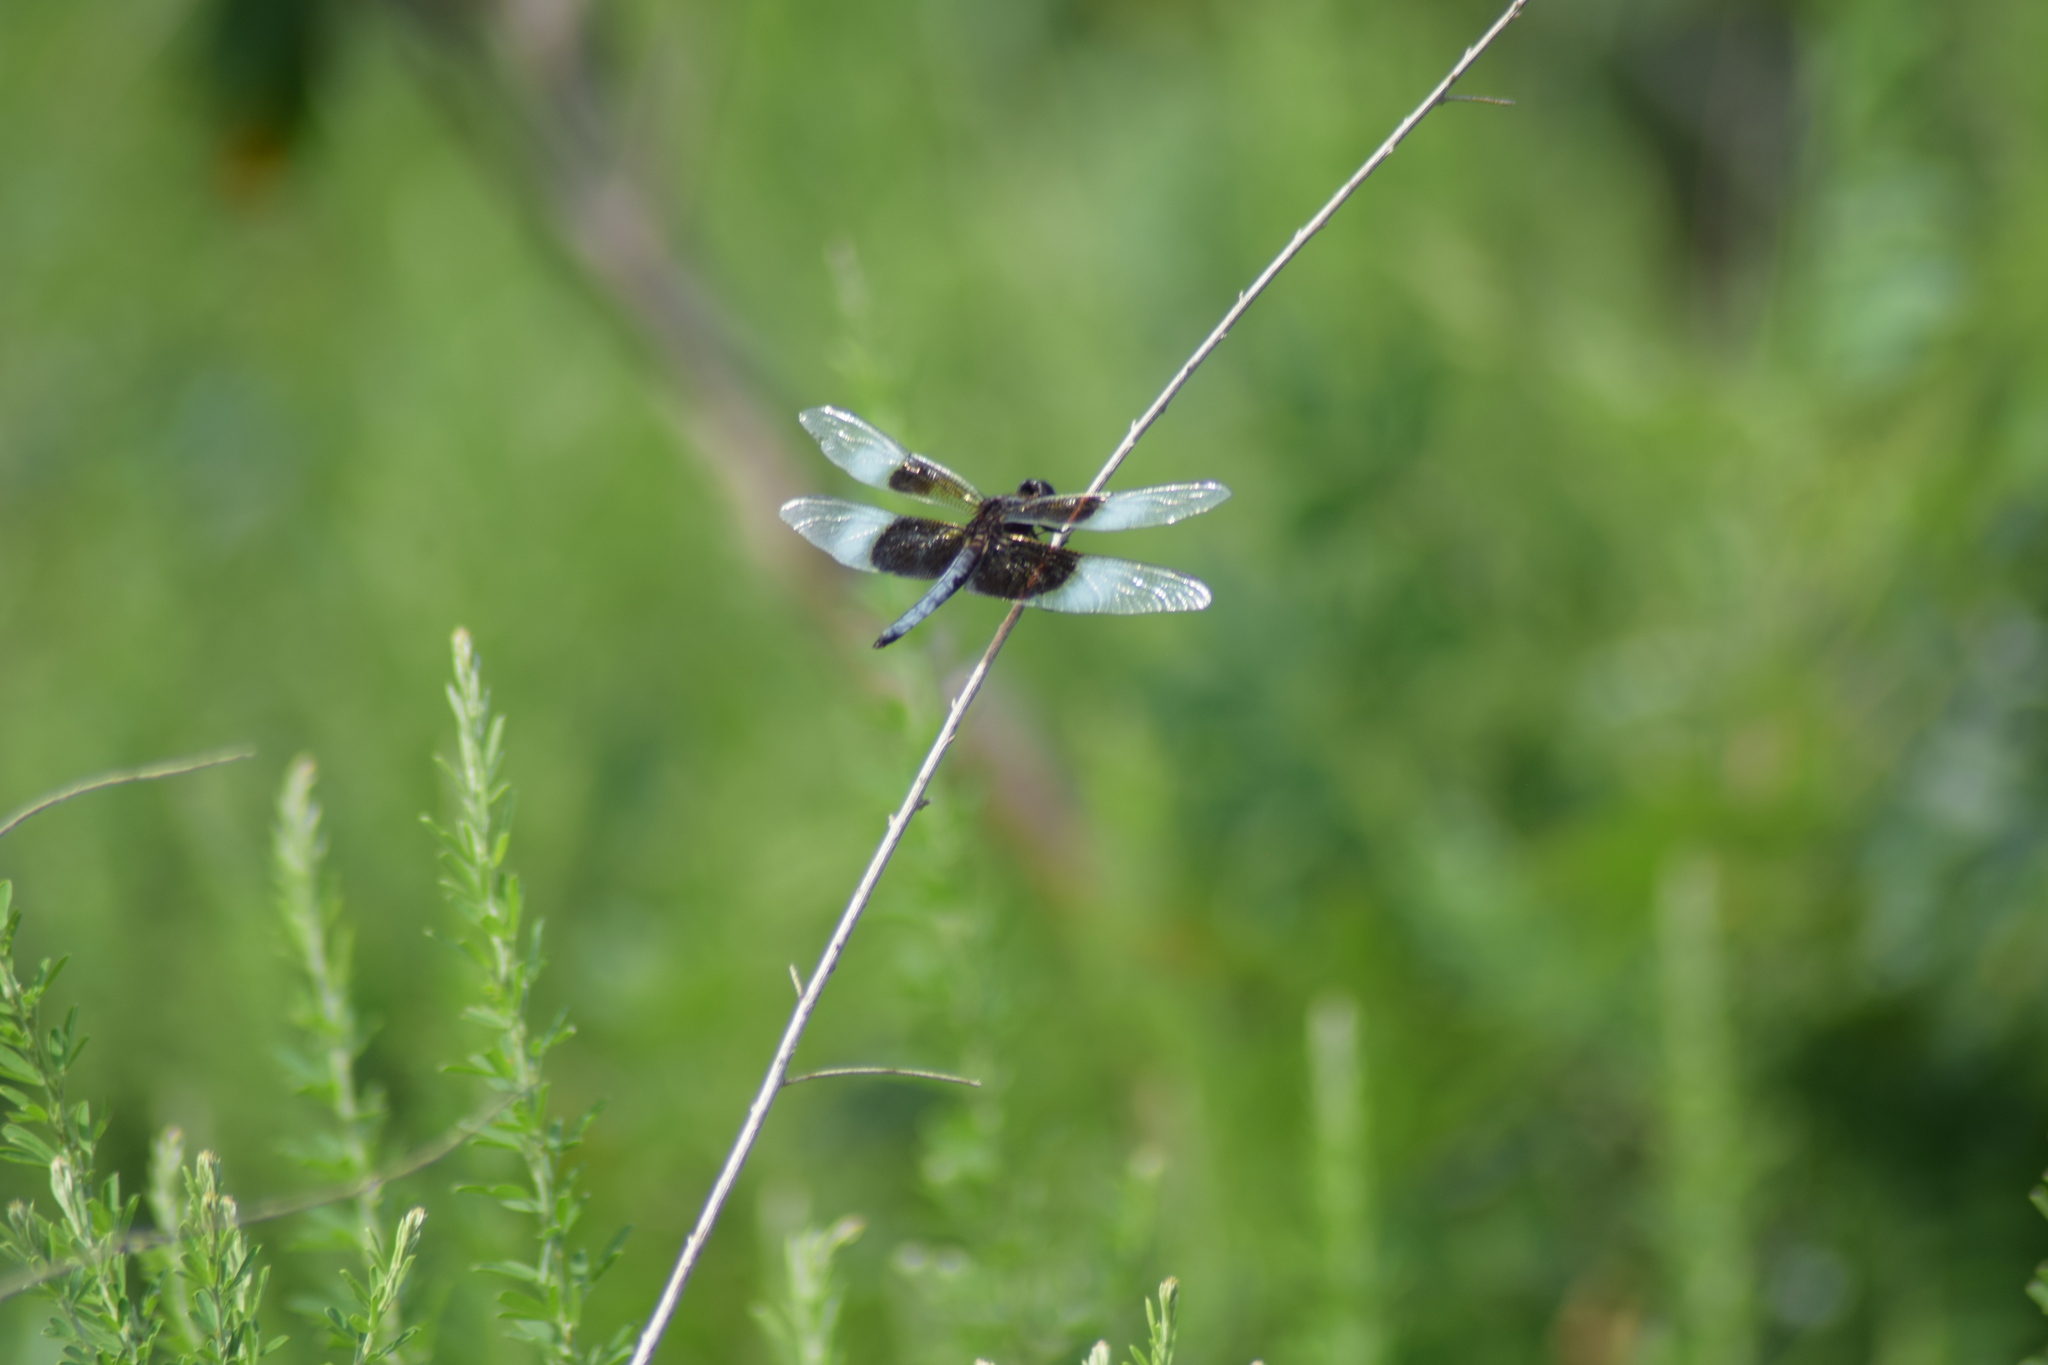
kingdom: Animalia
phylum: Arthropoda
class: Insecta
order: Odonata
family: Libellulidae
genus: Libellula
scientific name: Libellula luctuosa
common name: Widow skimmer
